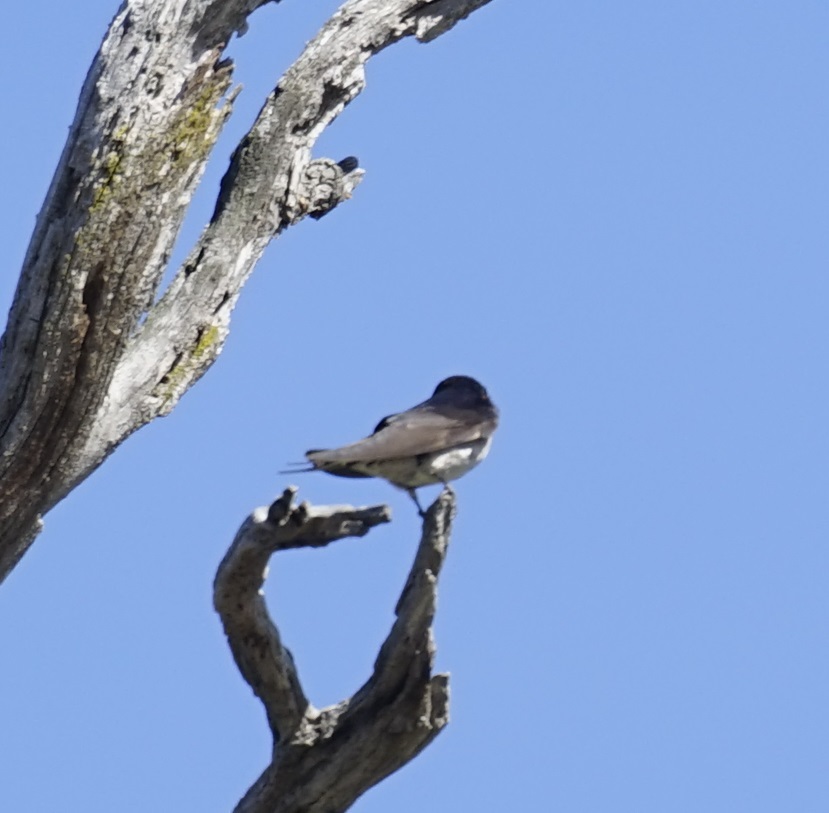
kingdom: Animalia
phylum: Chordata
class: Aves
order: Passeriformes
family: Hirundinidae
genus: Hirundo
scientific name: Hirundo neoxena
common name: Welcome swallow
